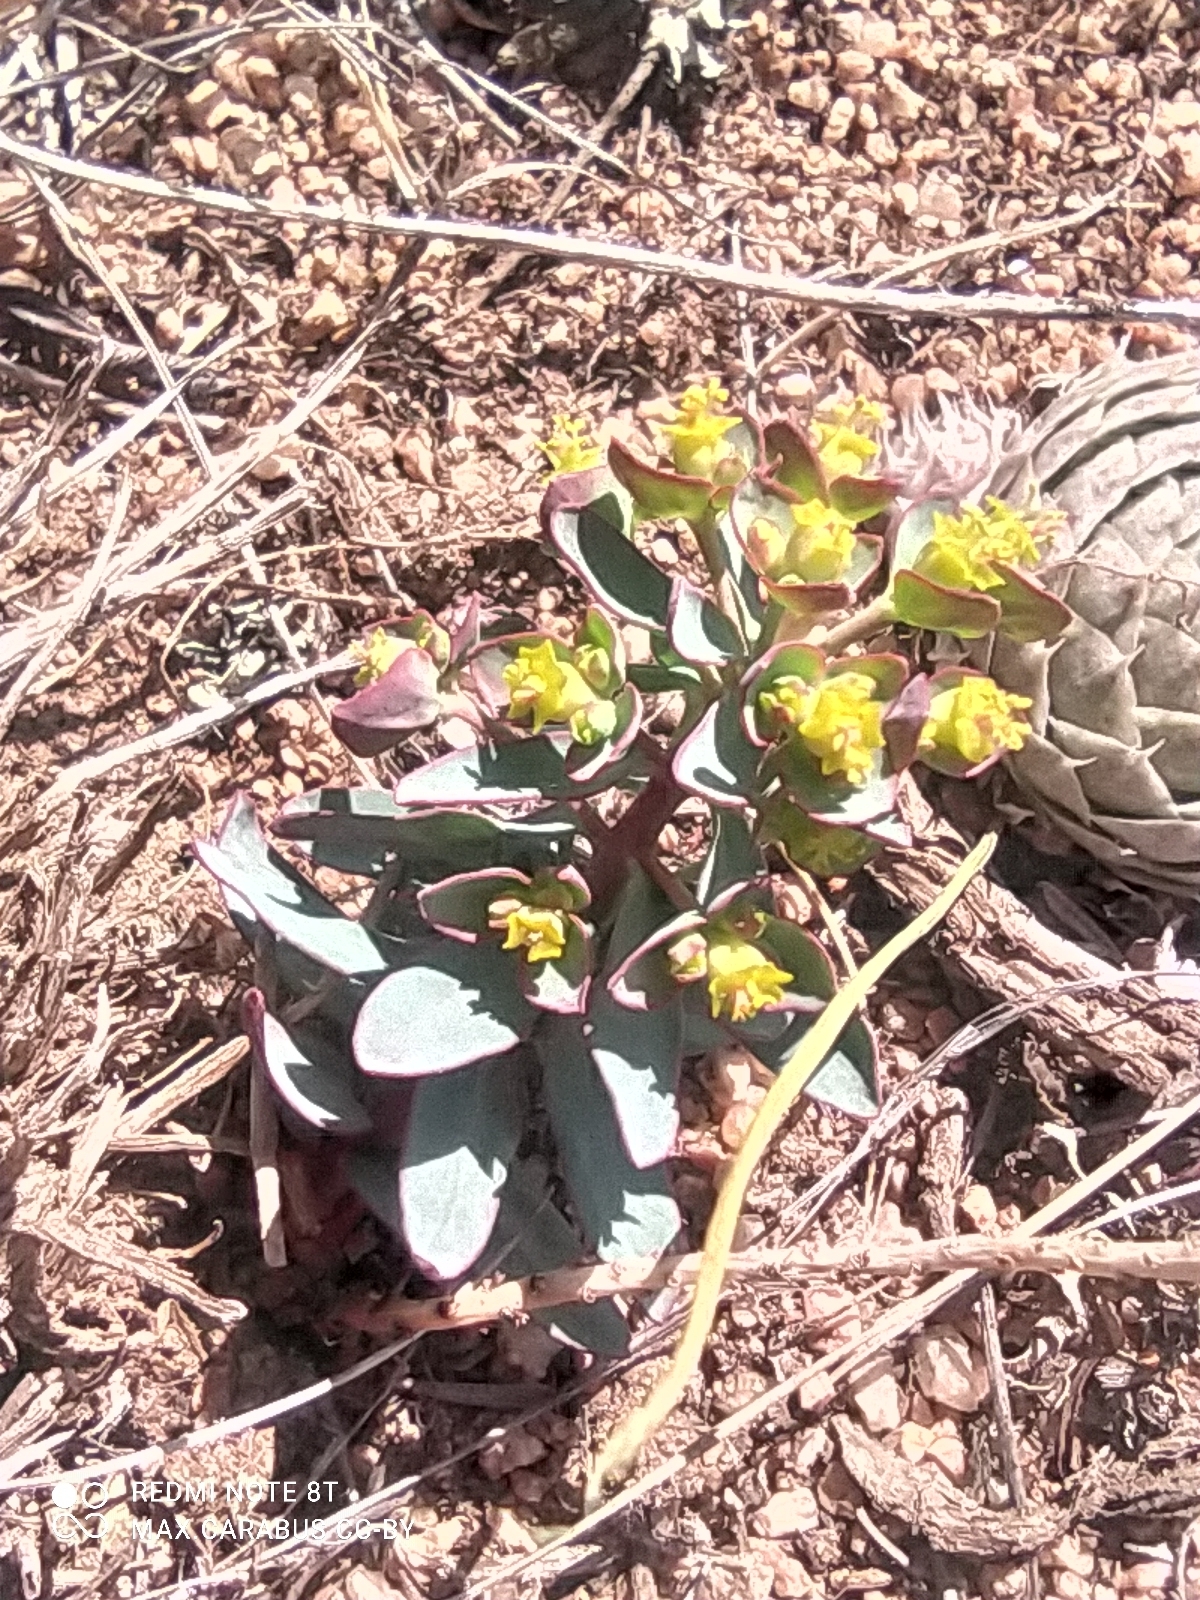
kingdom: Plantae
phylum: Tracheophyta
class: Magnoliopsida
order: Malpighiales
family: Euphorbiaceae
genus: Euphorbia
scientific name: Euphorbia rapulum
